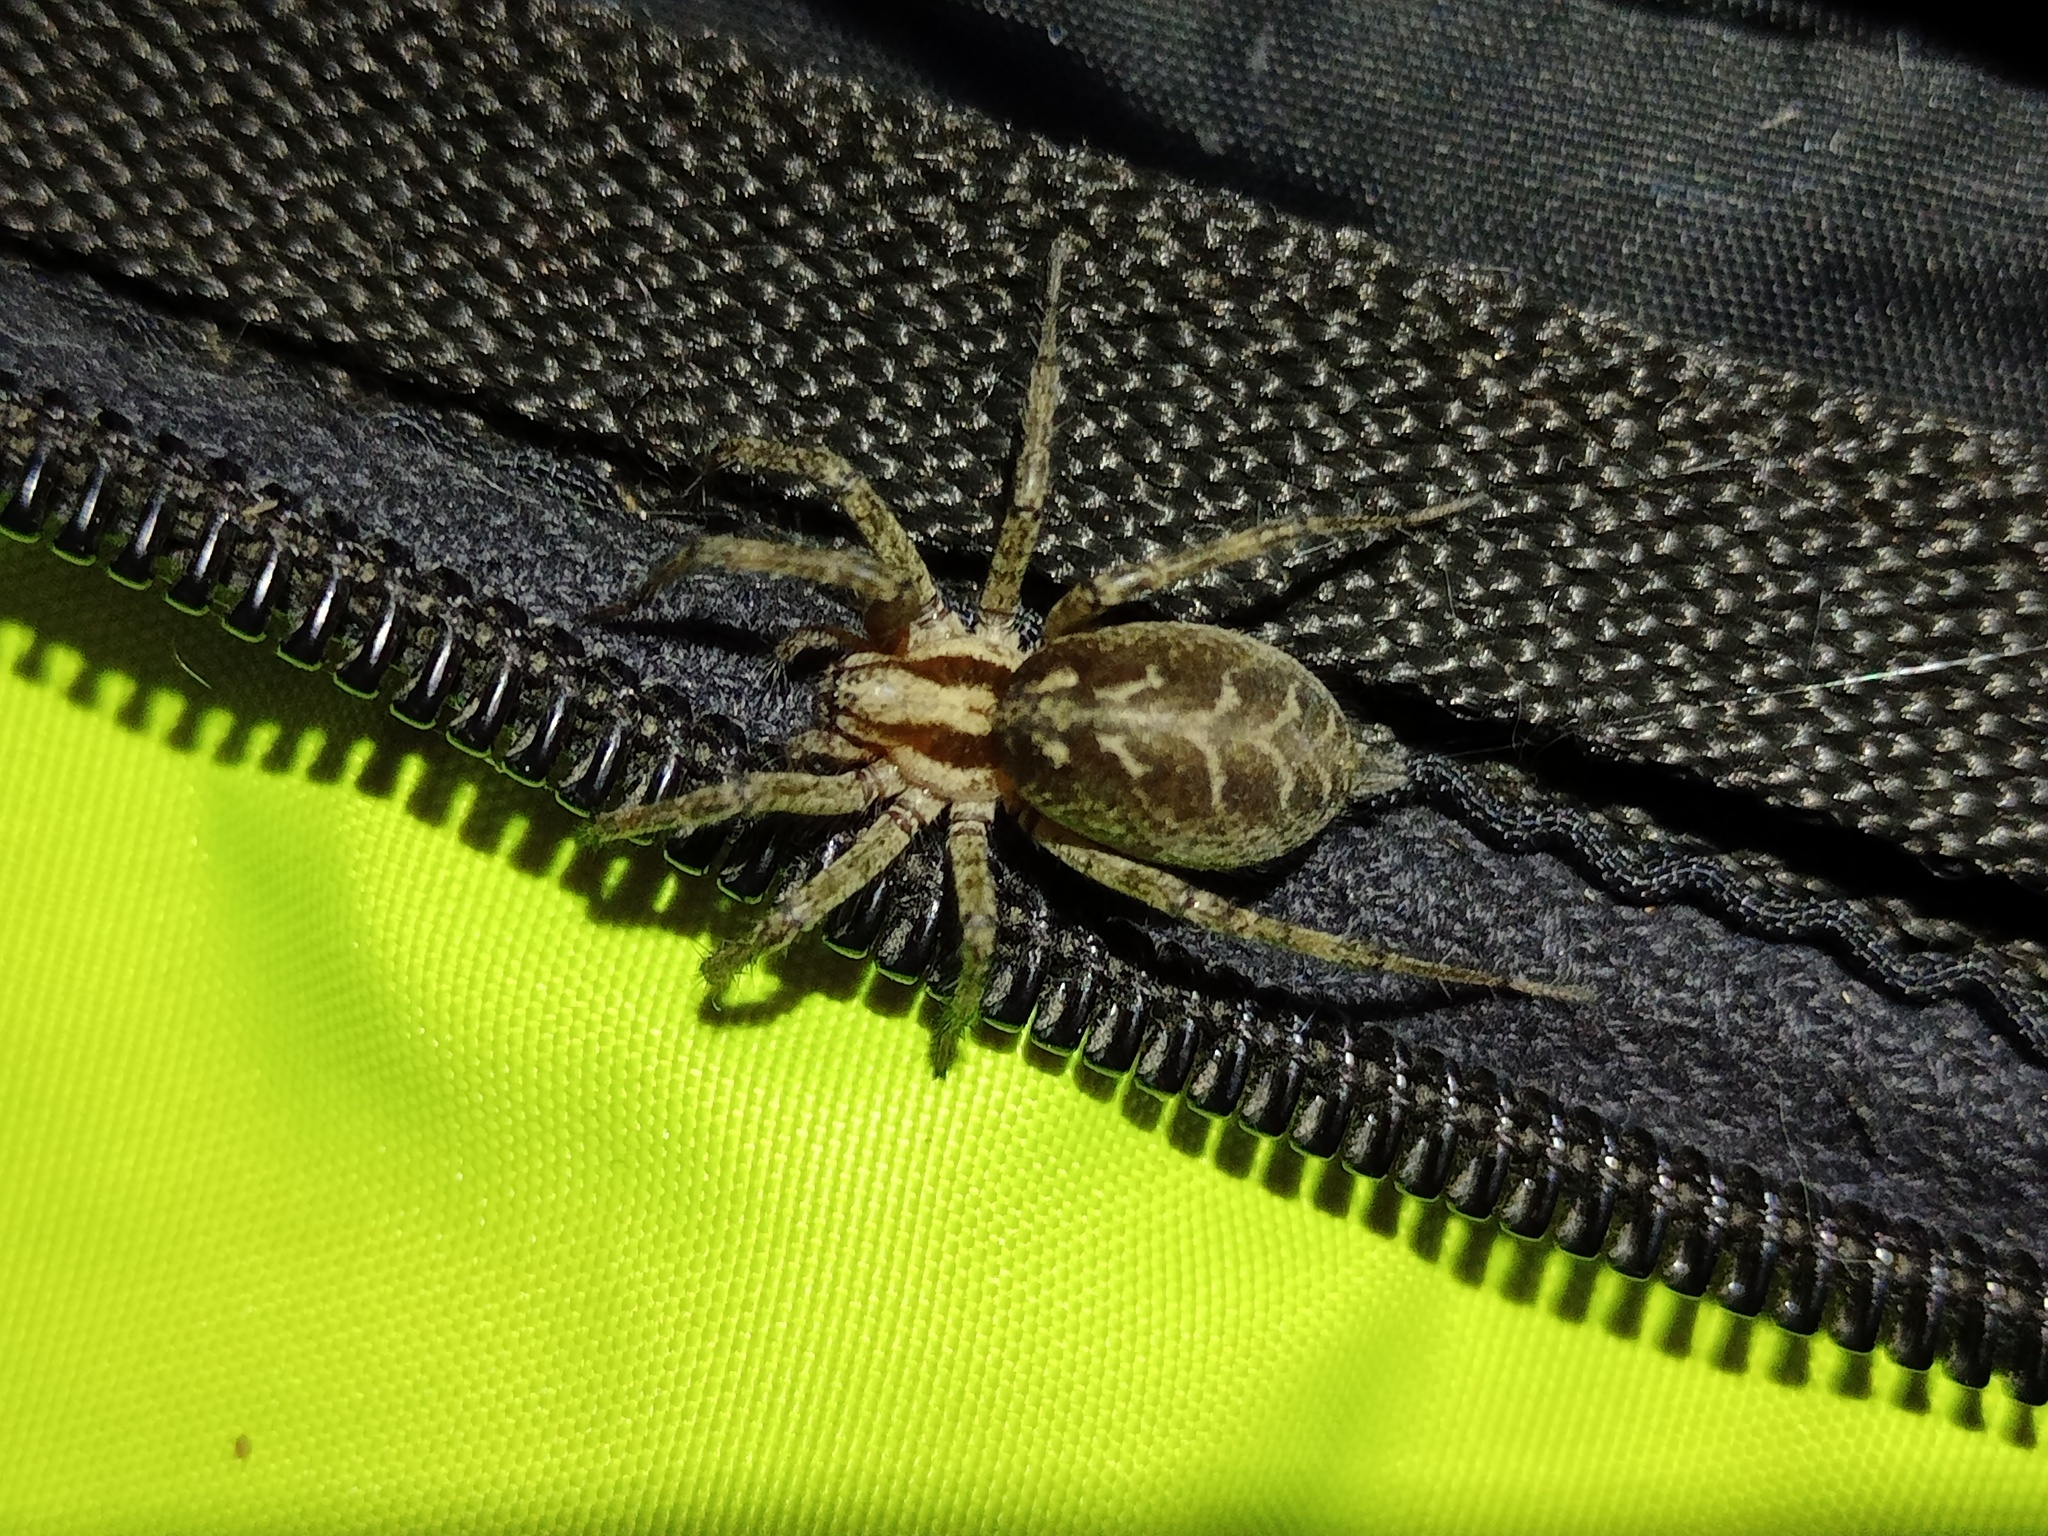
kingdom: Animalia
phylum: Arthropoda
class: Arachnida
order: Araneae
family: Agelenidae
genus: Agelena
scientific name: Agelena labyrinthica
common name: Labyrinth spider
